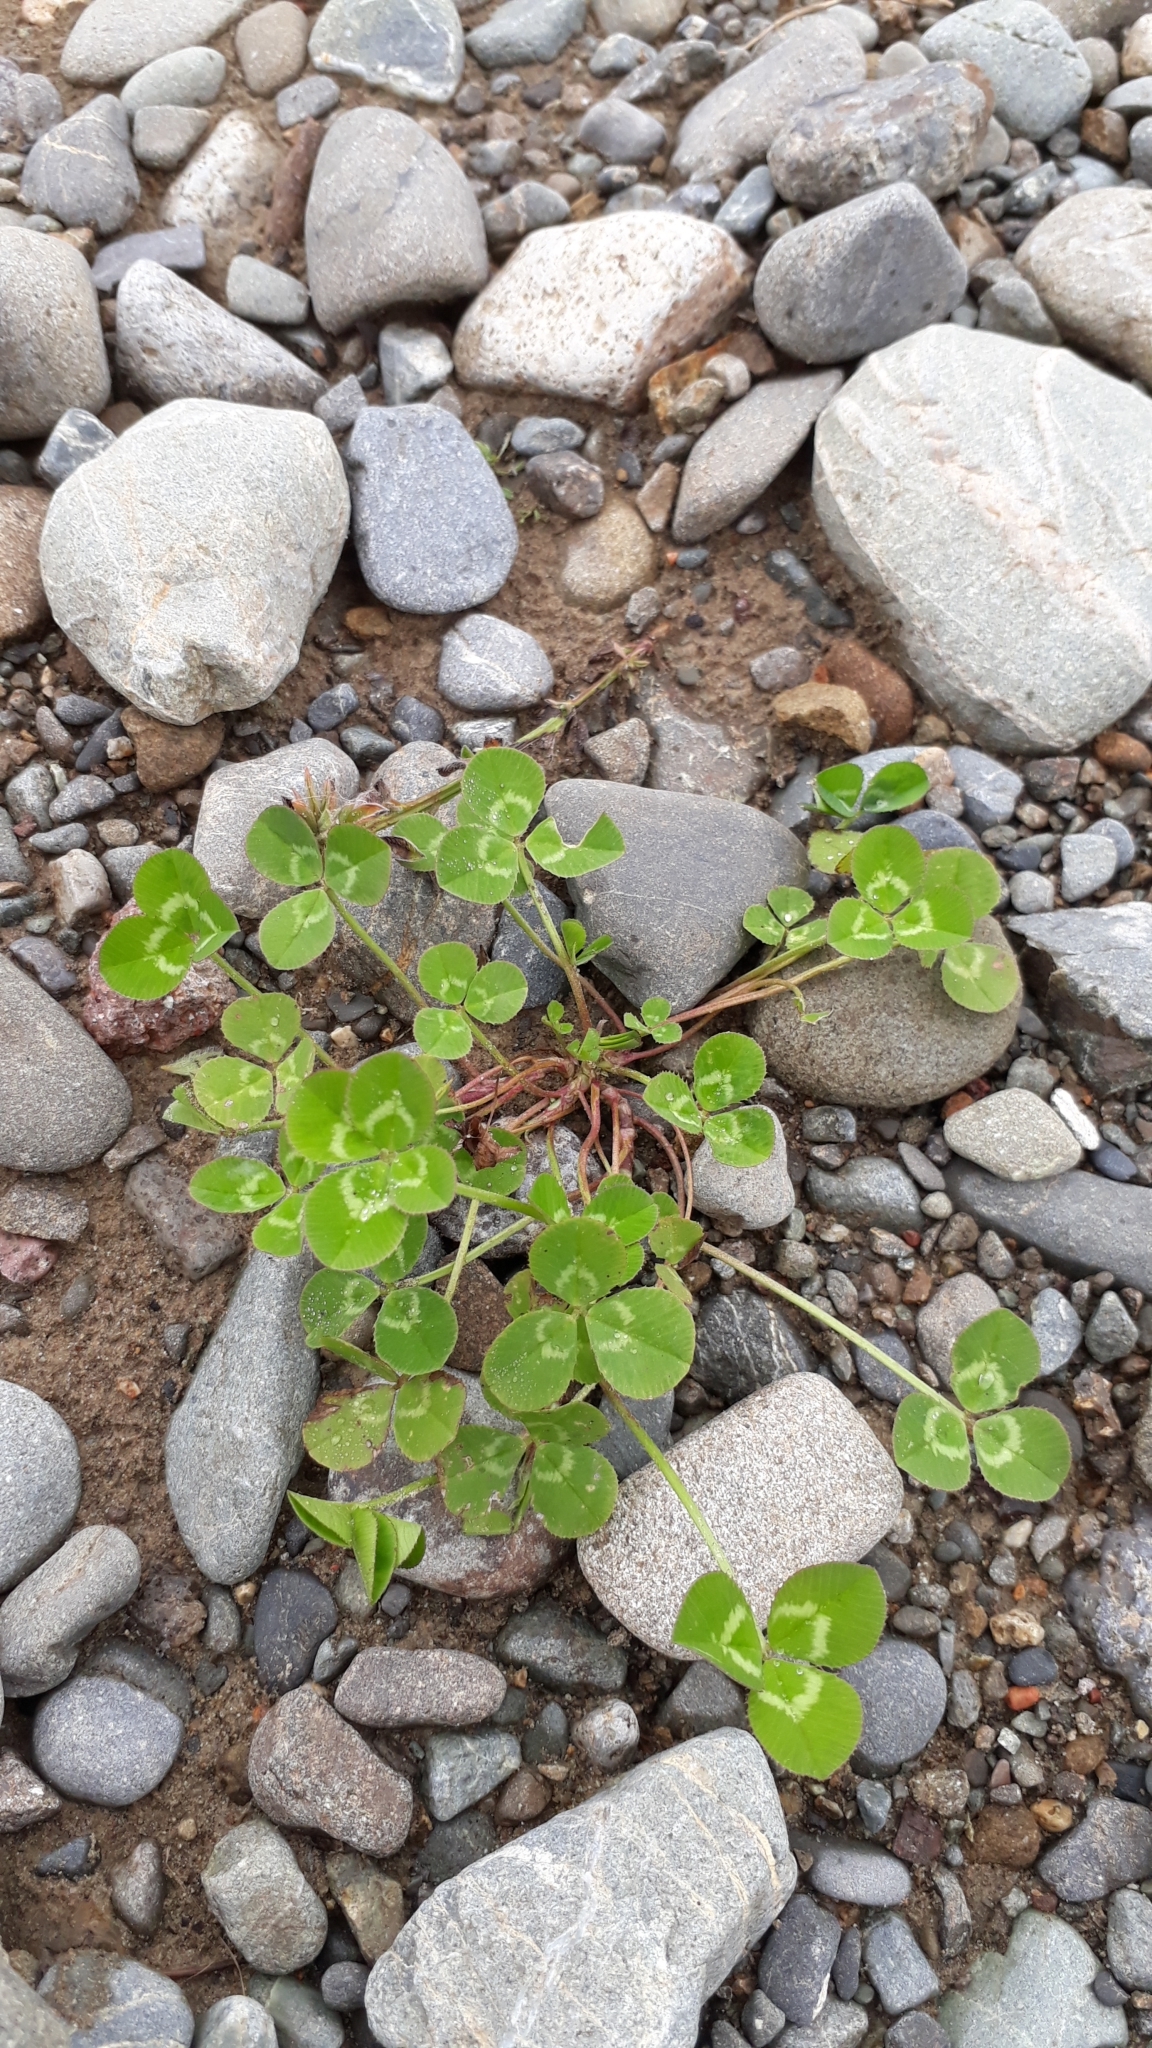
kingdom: Plantae
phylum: Tracheophyta
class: Magnoliopsida
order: Fabales
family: Fabaceae
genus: Trifolium
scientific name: Trifolium repens
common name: White clover
